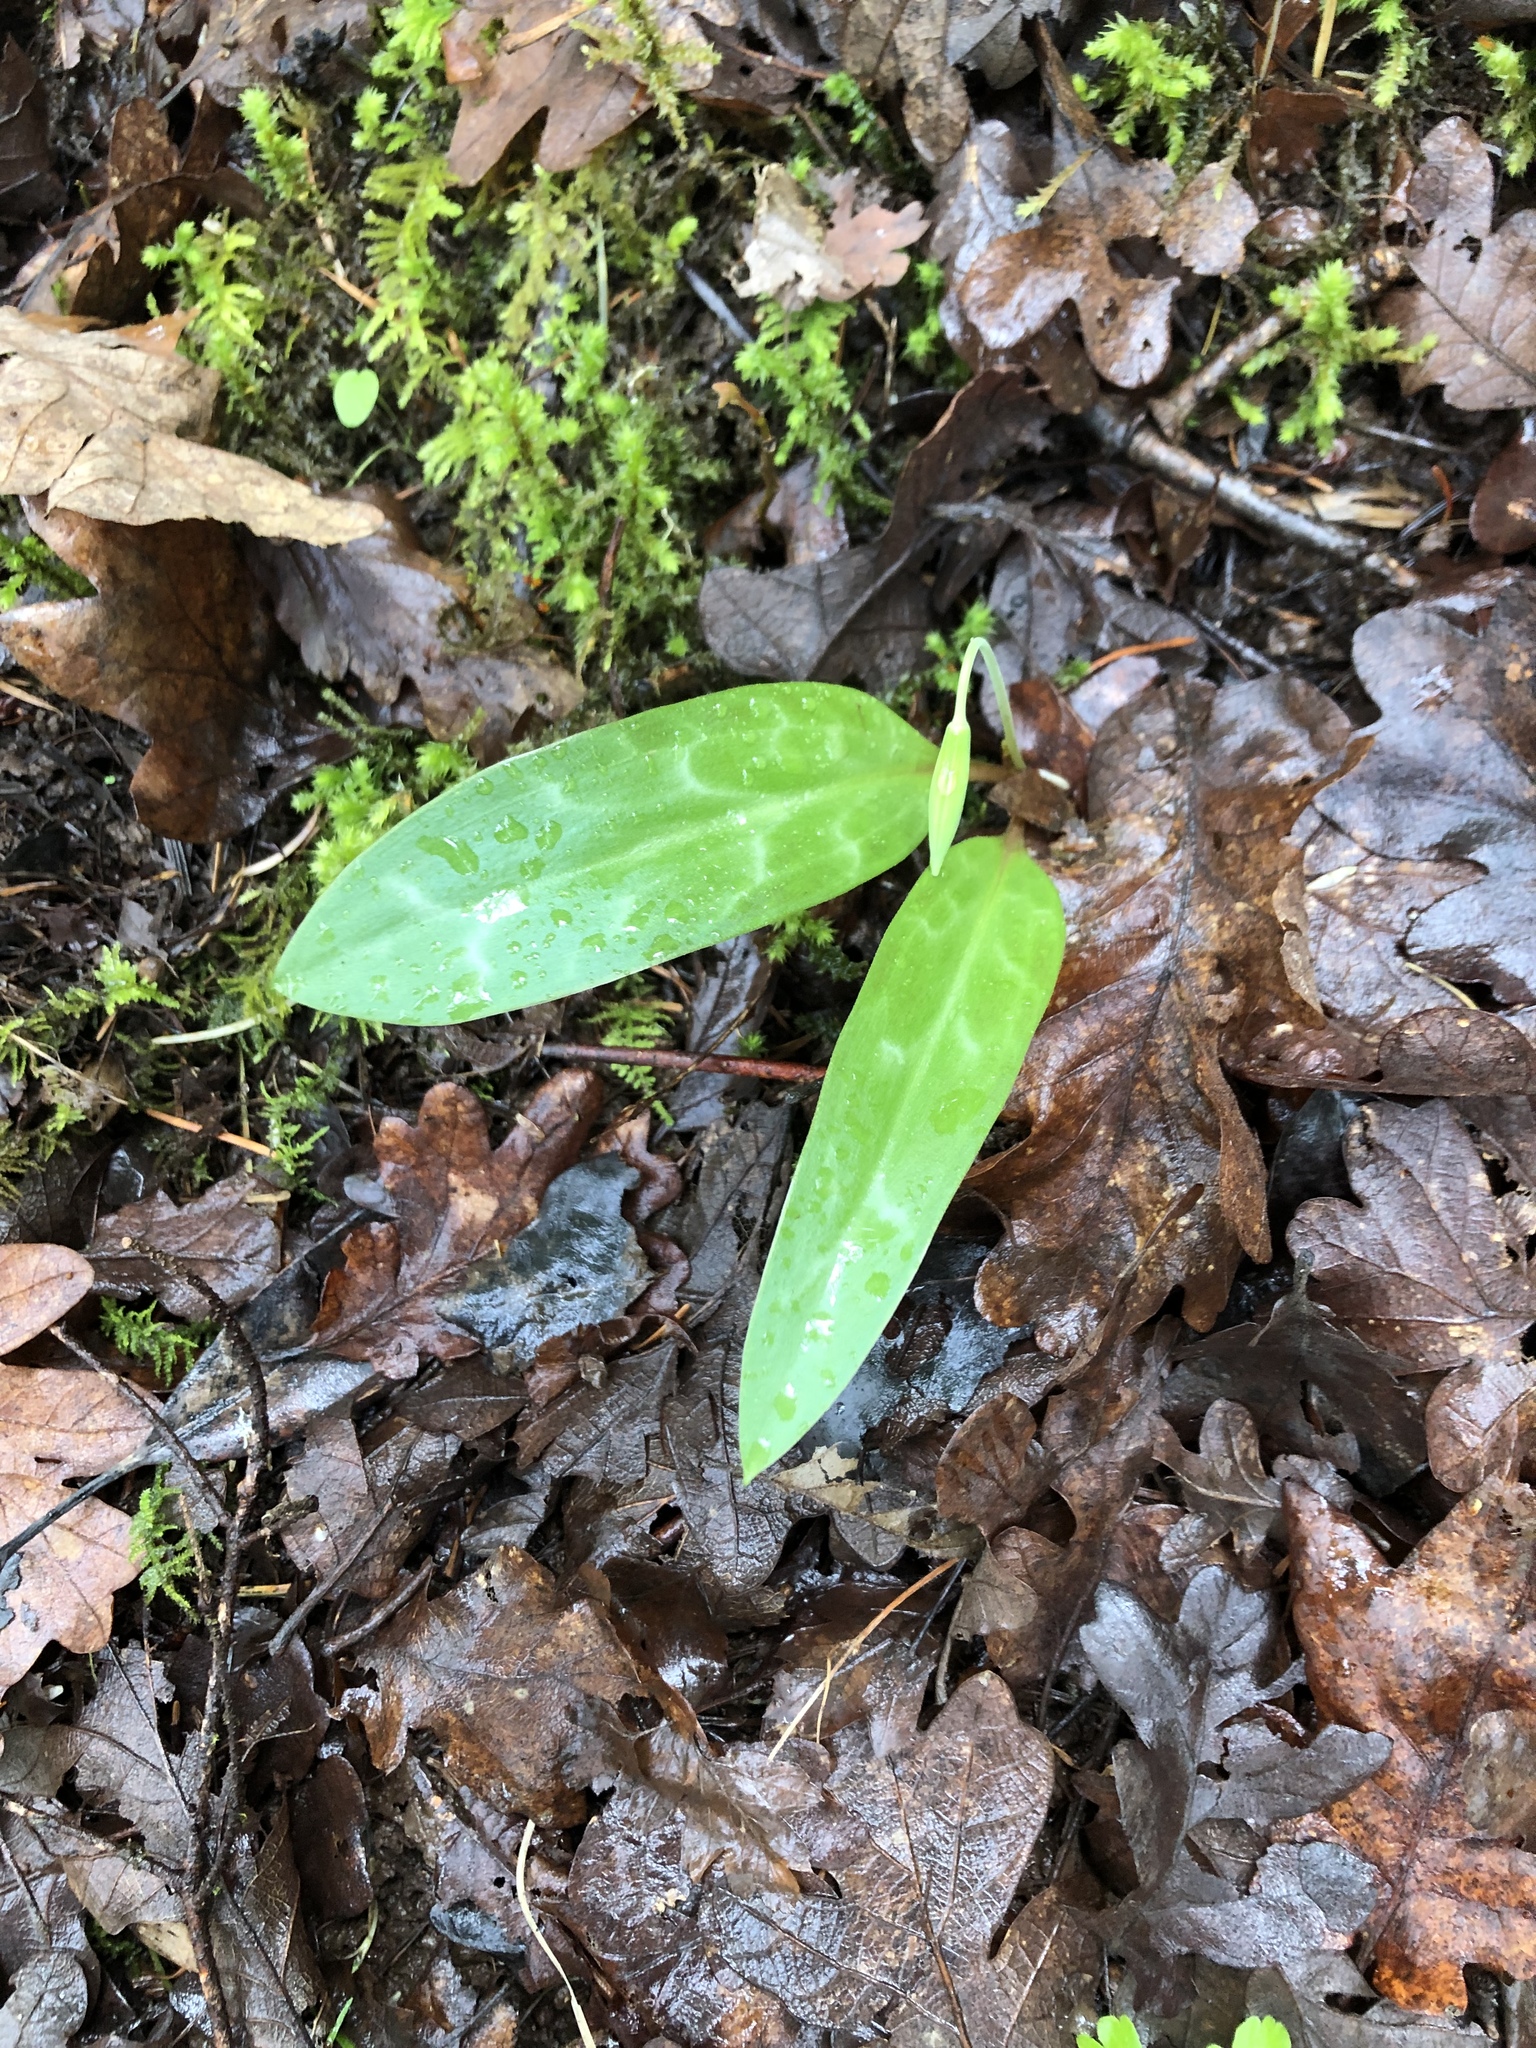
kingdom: Plantae
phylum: Tracheophyta
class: Liliopsida
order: Liliales
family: Liliaceae
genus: Erythronium
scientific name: Erythronium oregonum
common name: Giant adder's-tongue
